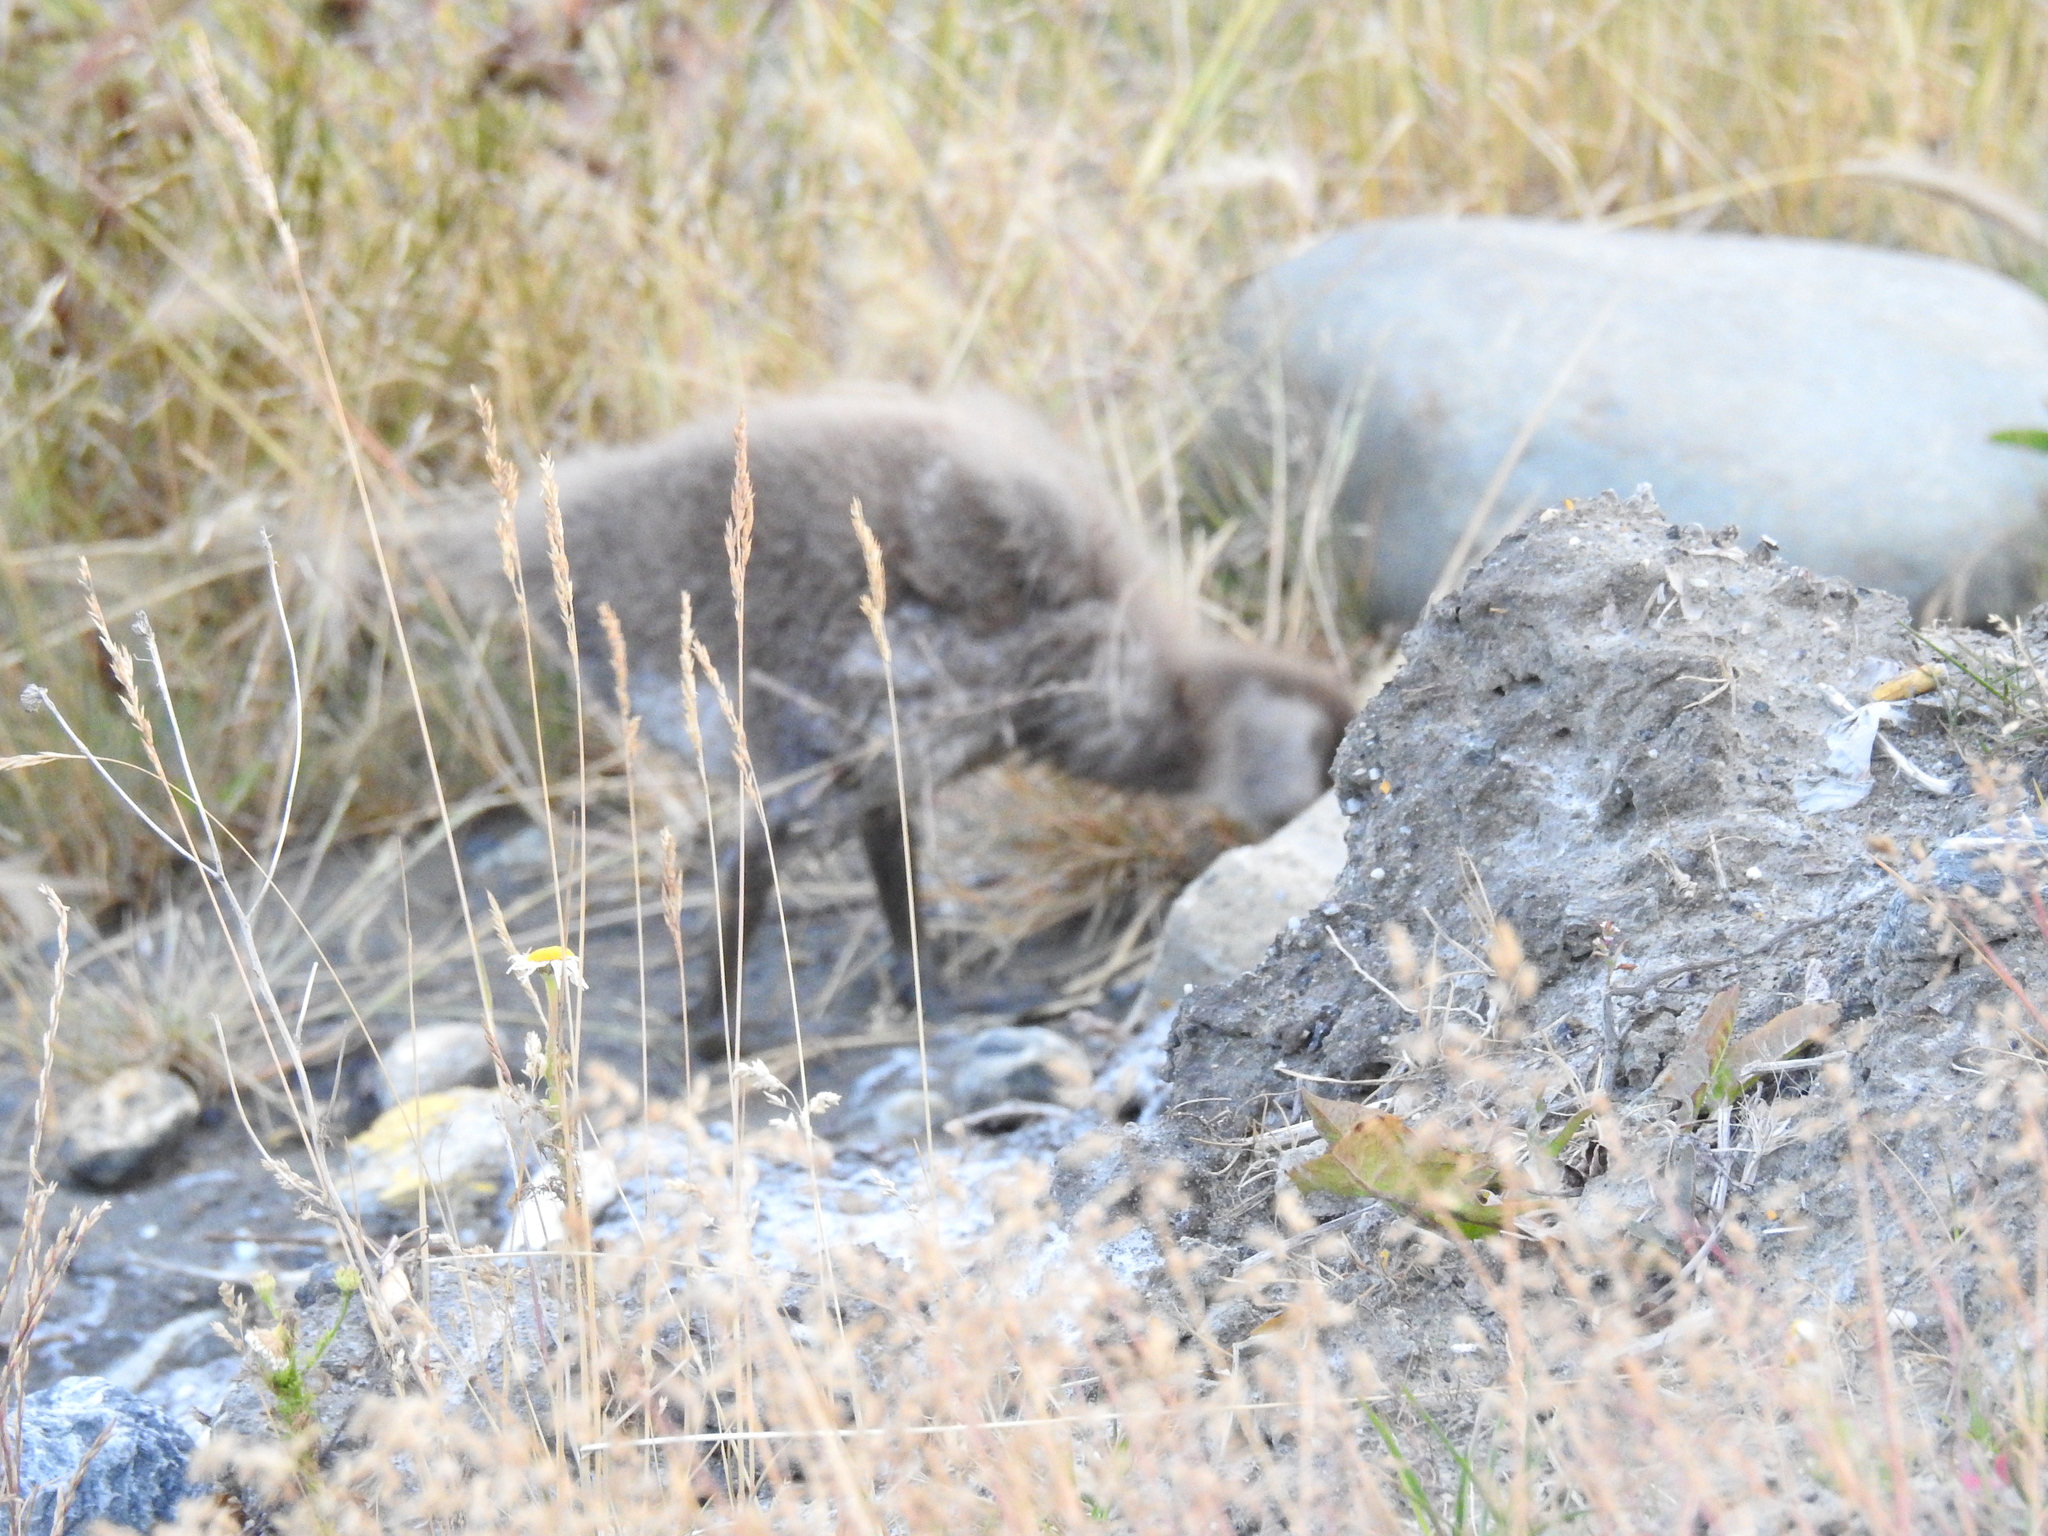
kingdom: Animalia
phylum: Chordata
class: Aves
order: Anseriformes
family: Anatidae
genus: Chloephaga
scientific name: Chloephaga picta
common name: Upland goose
